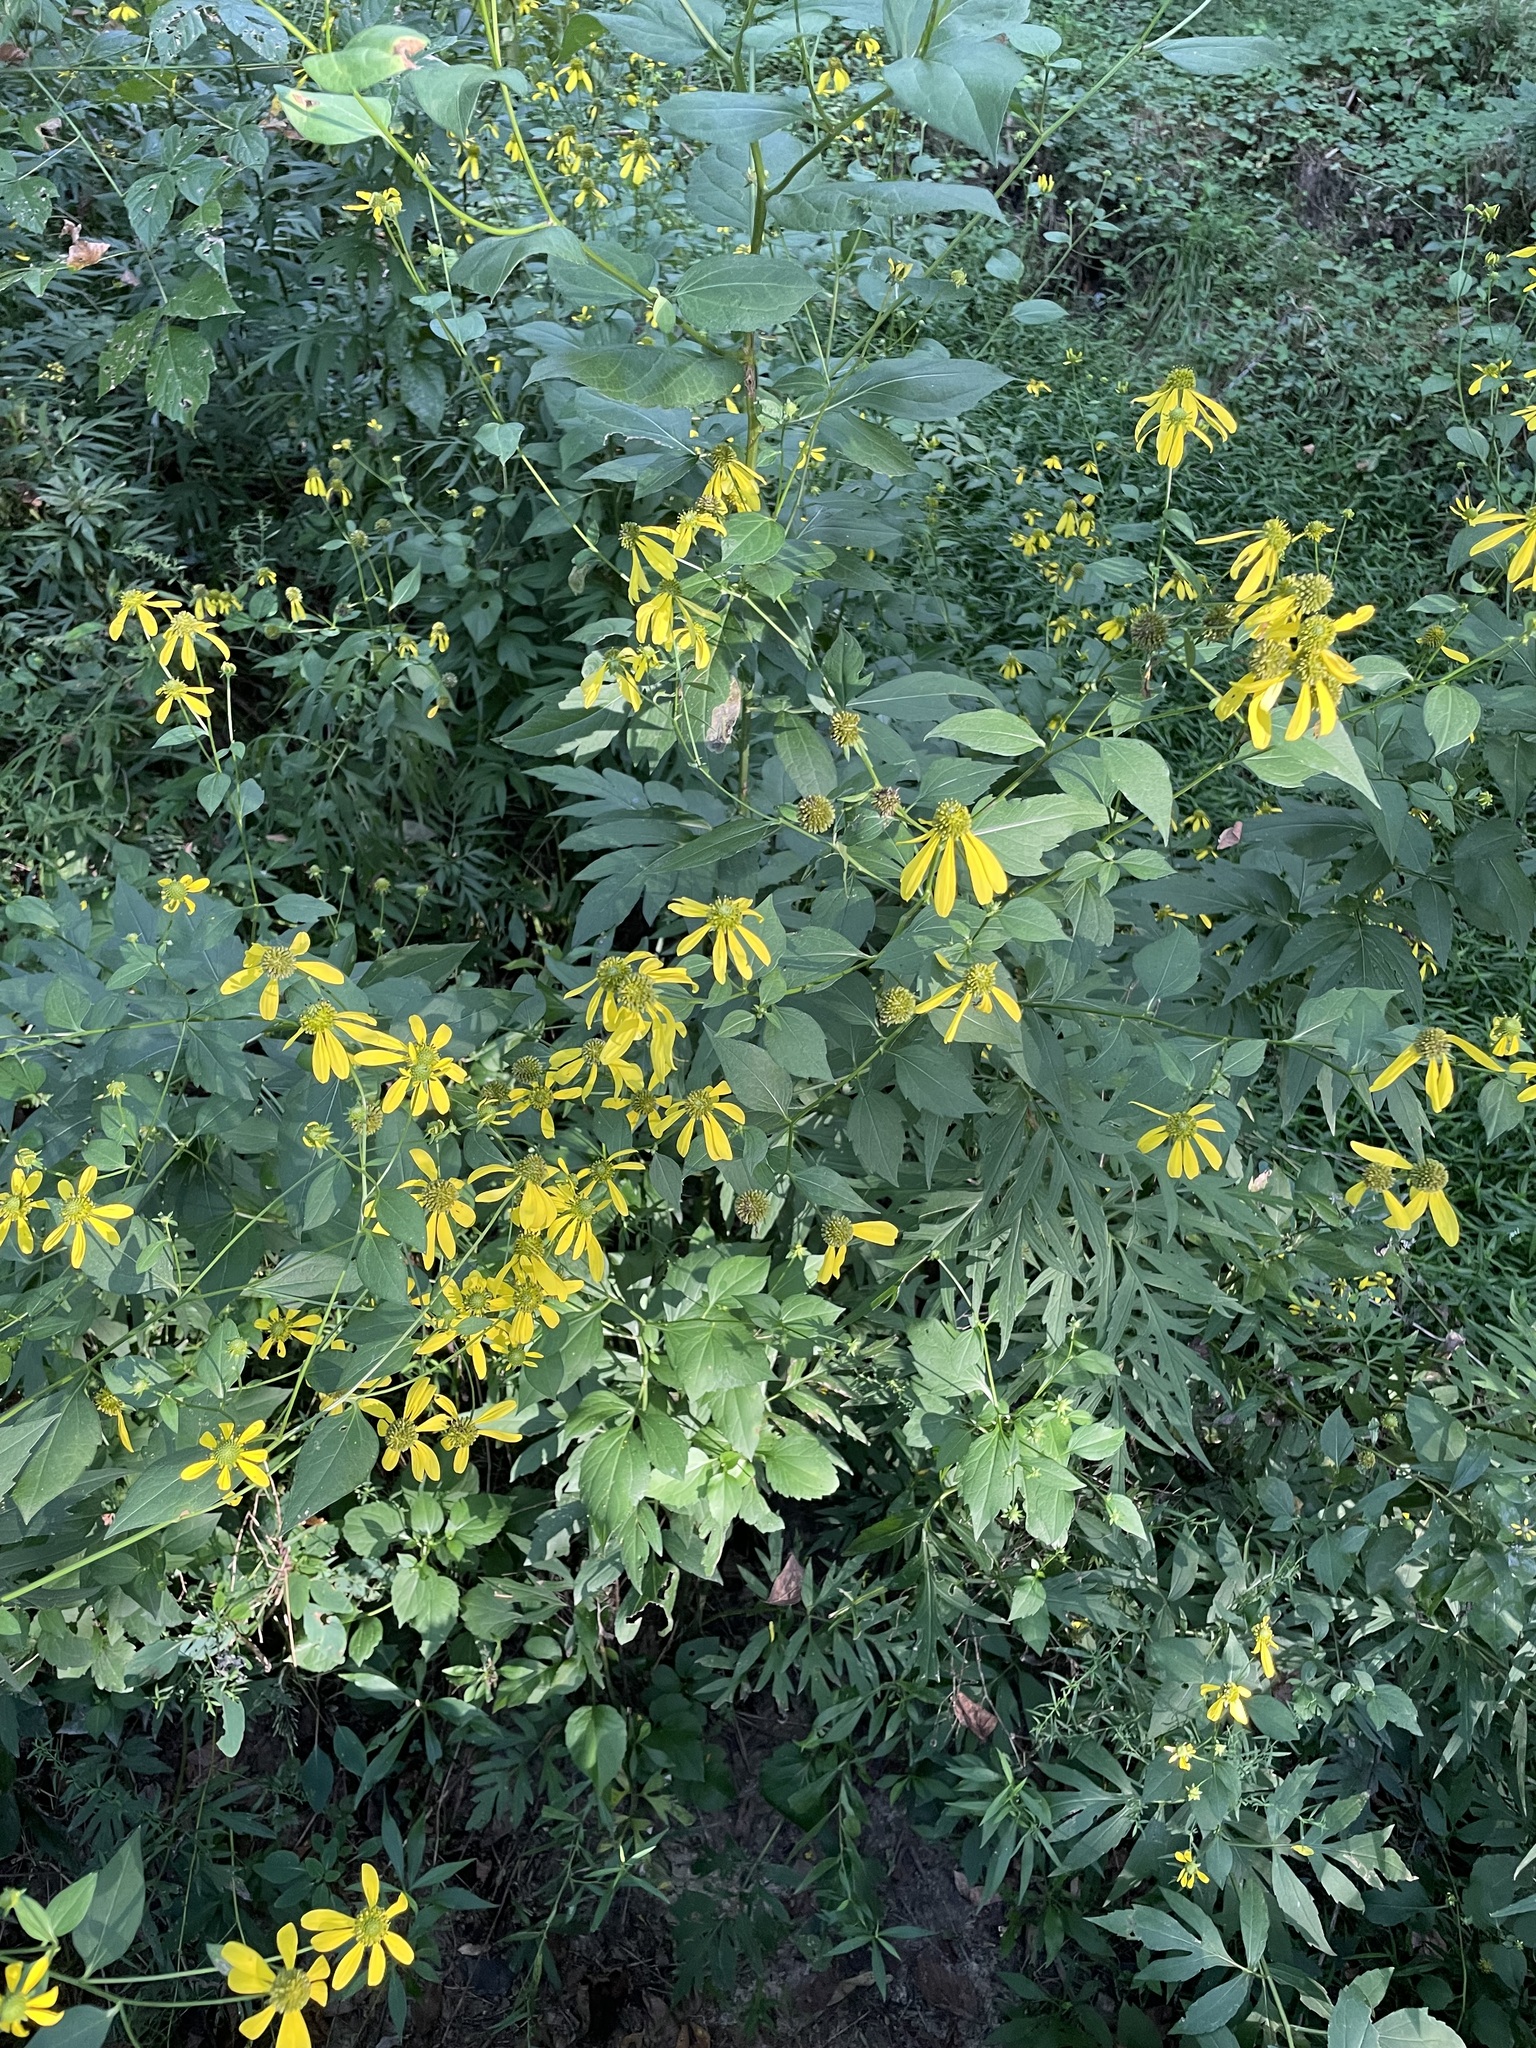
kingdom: Plantae
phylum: Tracheophyta
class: Magnoliopsida
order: Asterales
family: Asteraceae
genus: Rudbeckia
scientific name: Rudbeckia laciniata
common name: Coneflower
